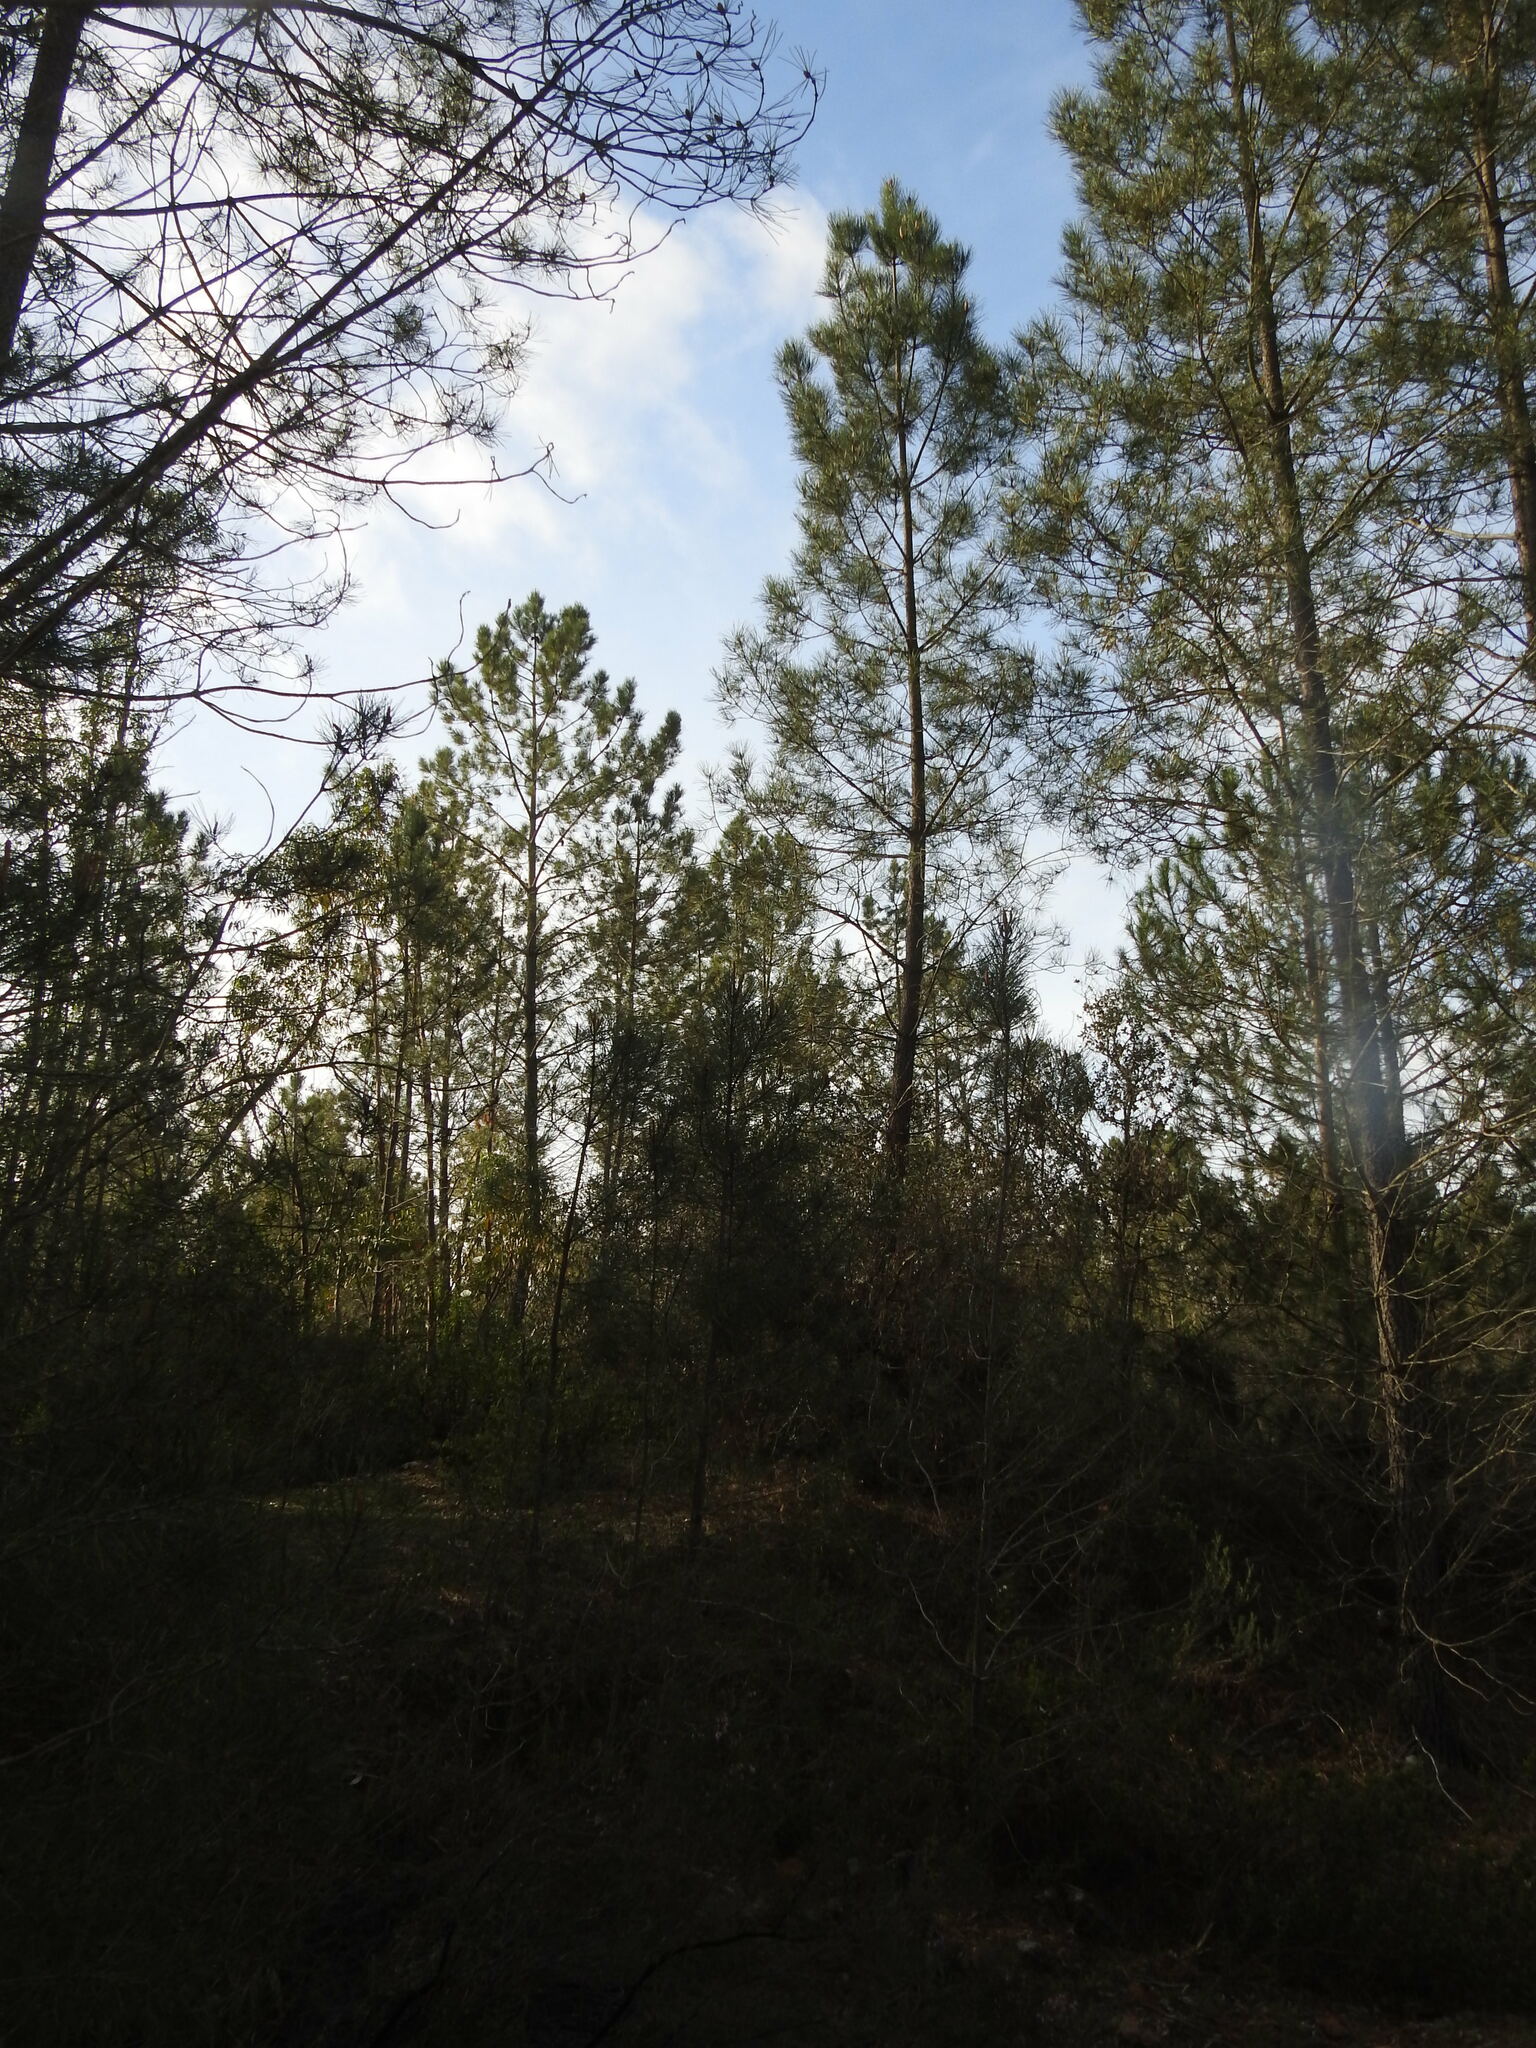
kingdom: Plantae
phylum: Tracheophyta
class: Pinopsida
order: Pinales
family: Pinaceae
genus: Pinus
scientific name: Pinus pinaster
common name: Maritime pine
